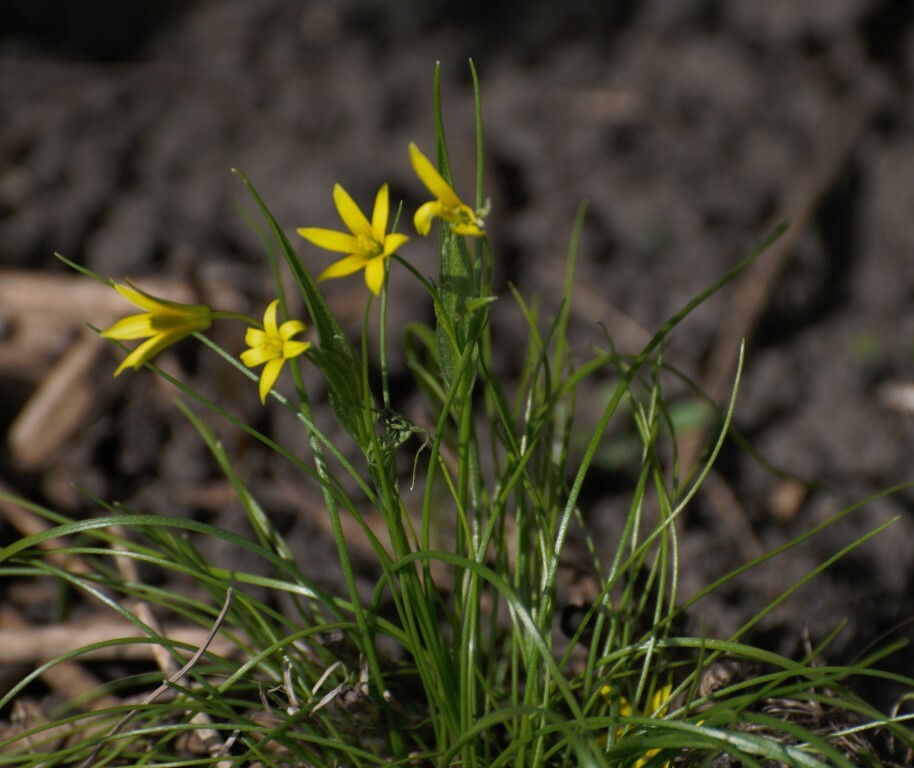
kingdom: Plantae
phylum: Tracheophyta
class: Liliopsida
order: Liliales
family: Liliaceae
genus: Gagea
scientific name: Gagea minima
